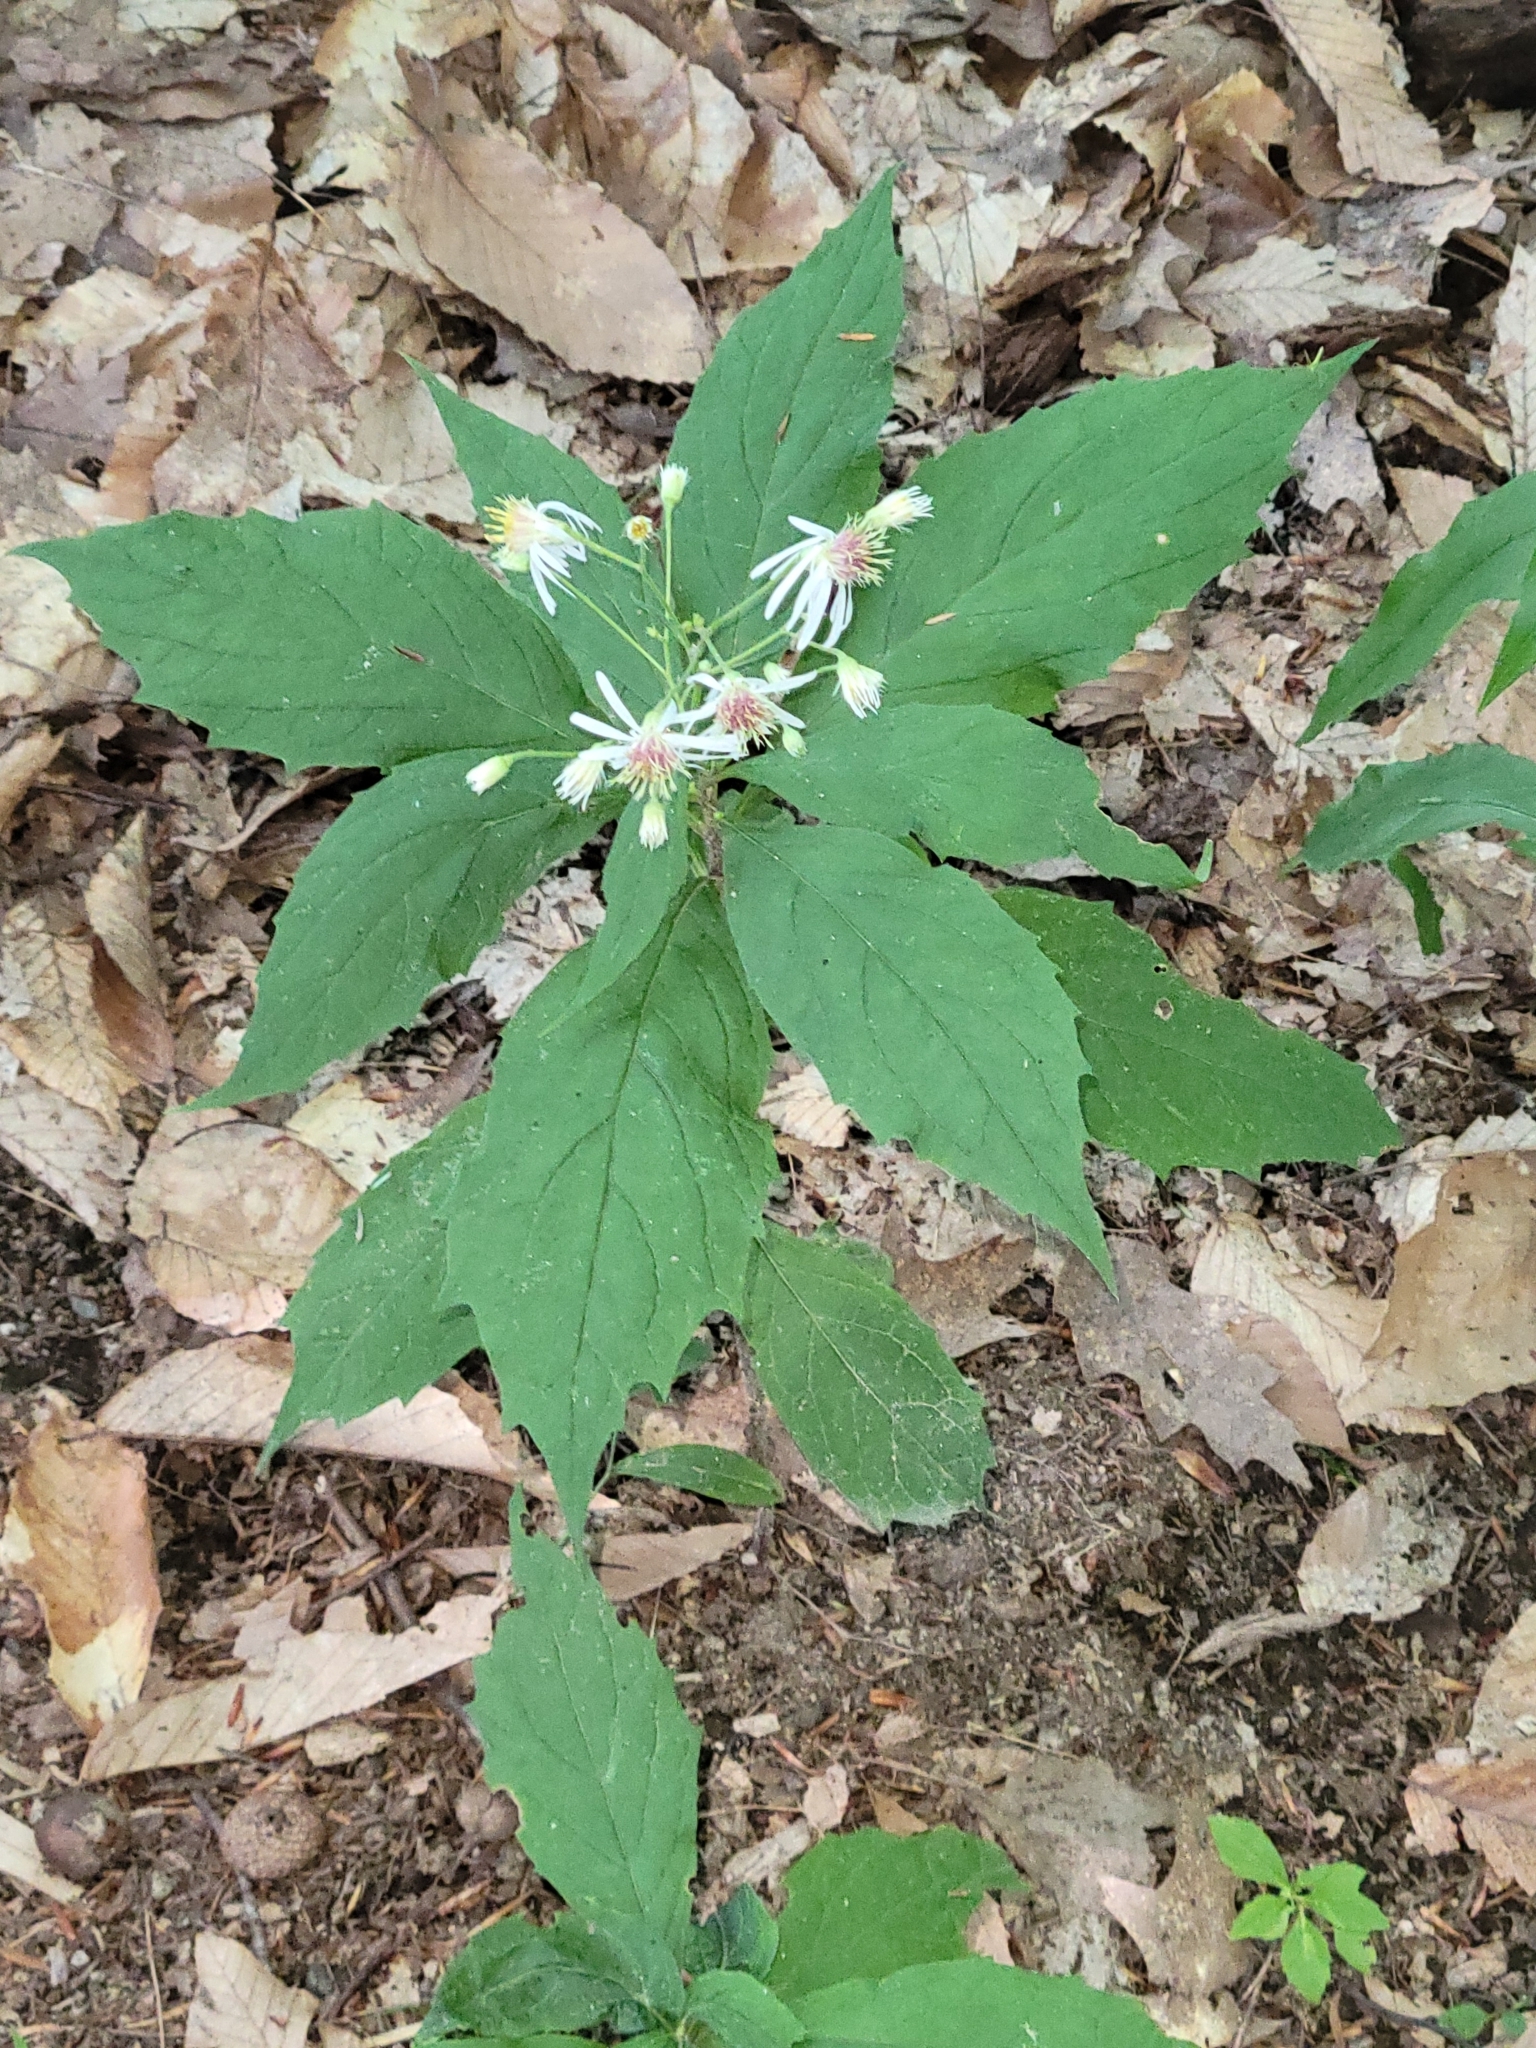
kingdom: Plantae
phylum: Tracheophyta
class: Magnoliopsida
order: Asterales
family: Asteraceae
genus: Oclemena
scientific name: Oclemena acuminata
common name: Mountain aster
